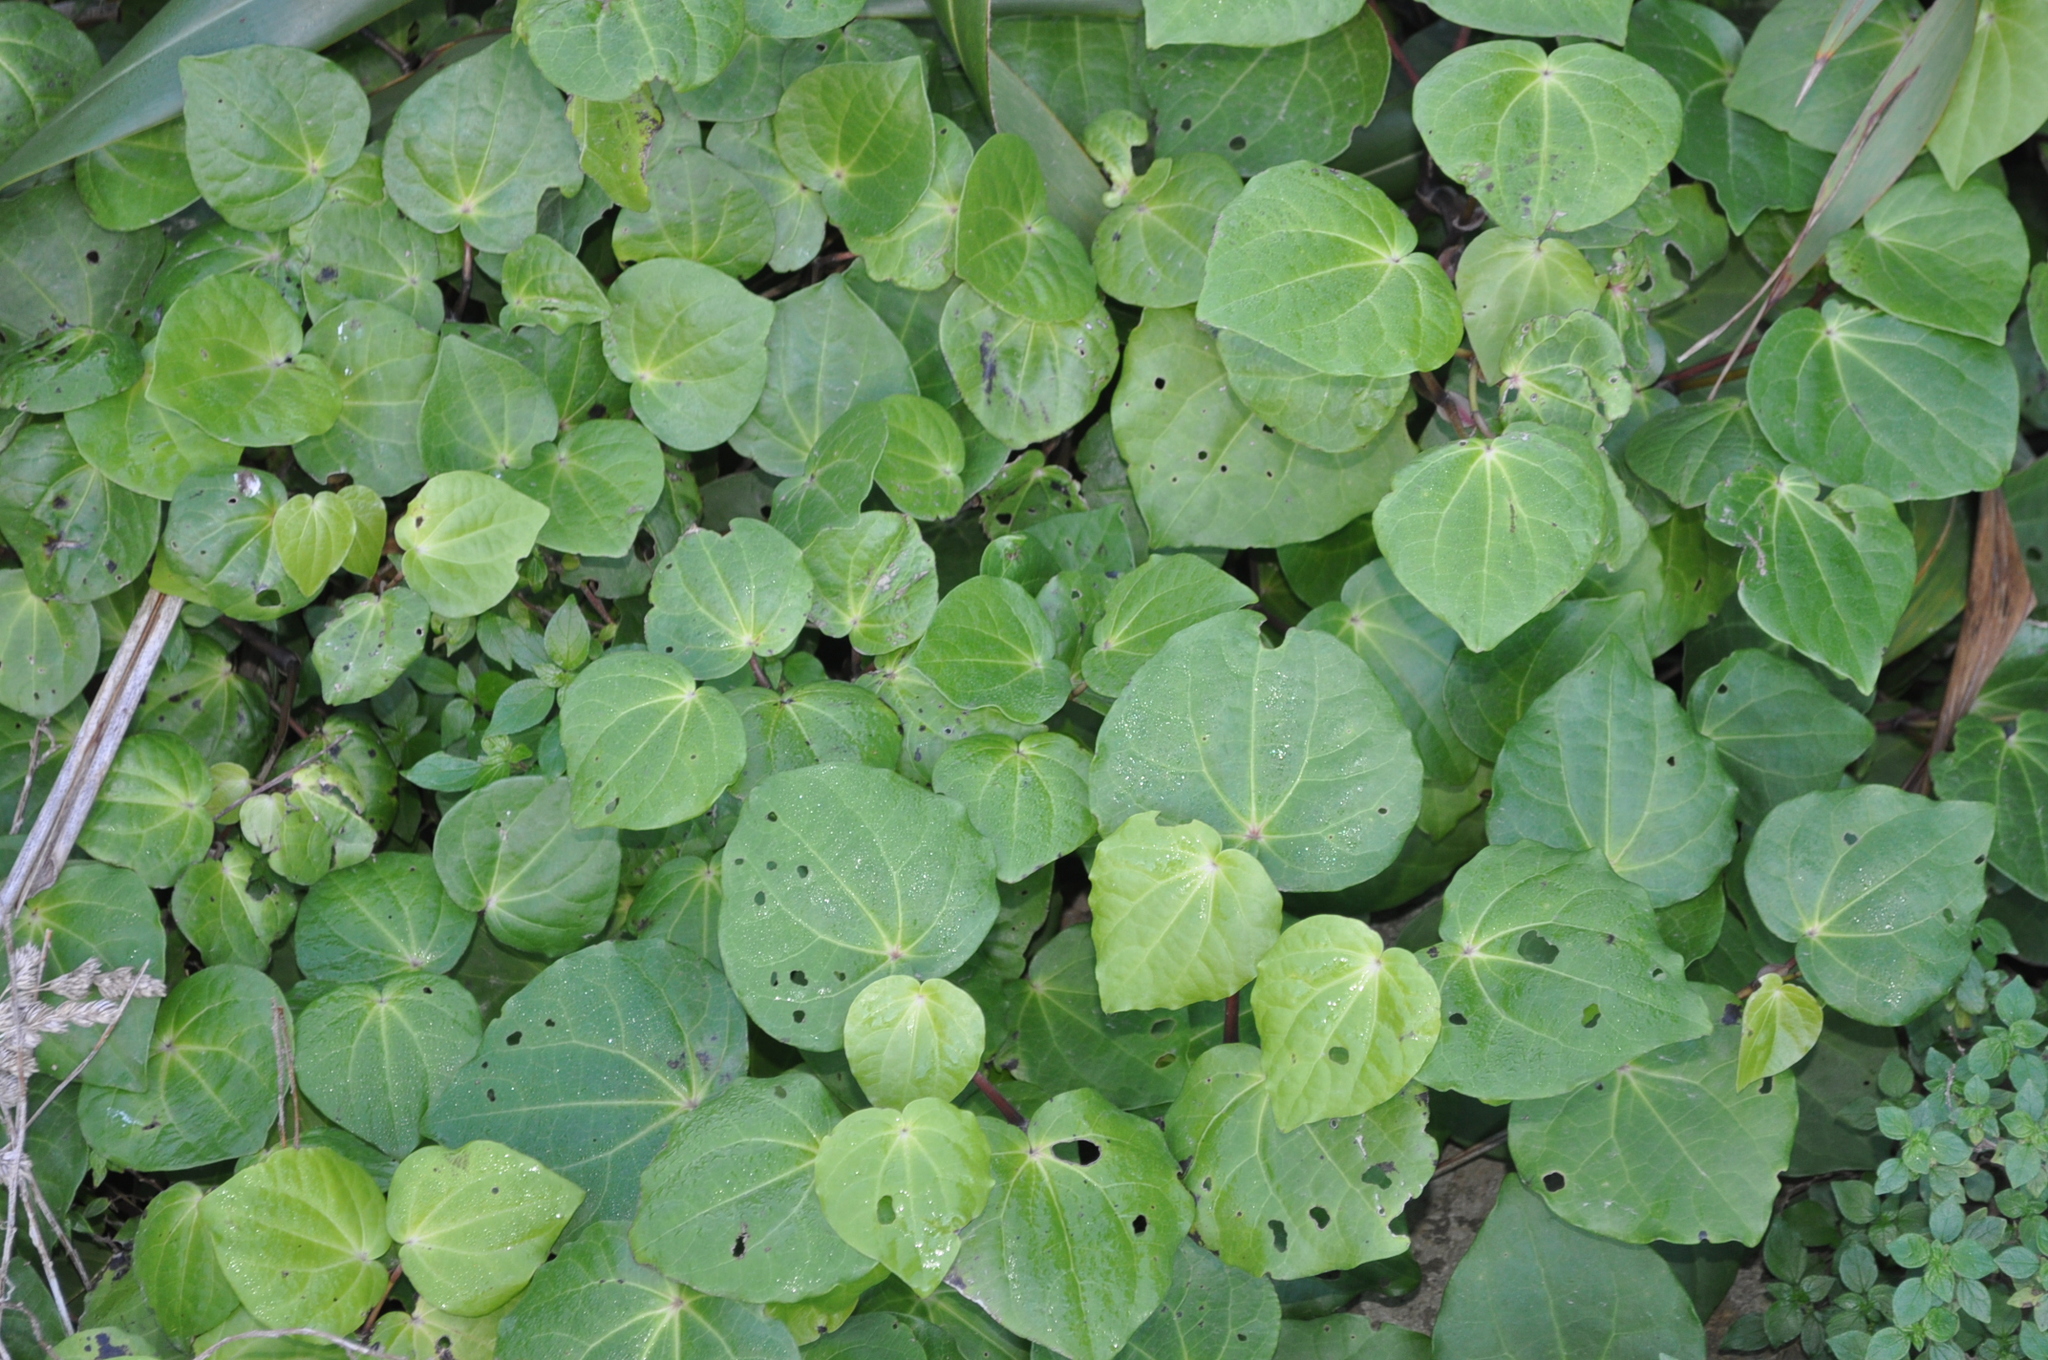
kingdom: Plantae
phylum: Tracheophyta
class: Magnoliopsida
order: Piperales
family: Piperaceae
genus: Macropiper
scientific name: Macropiper excelsum
